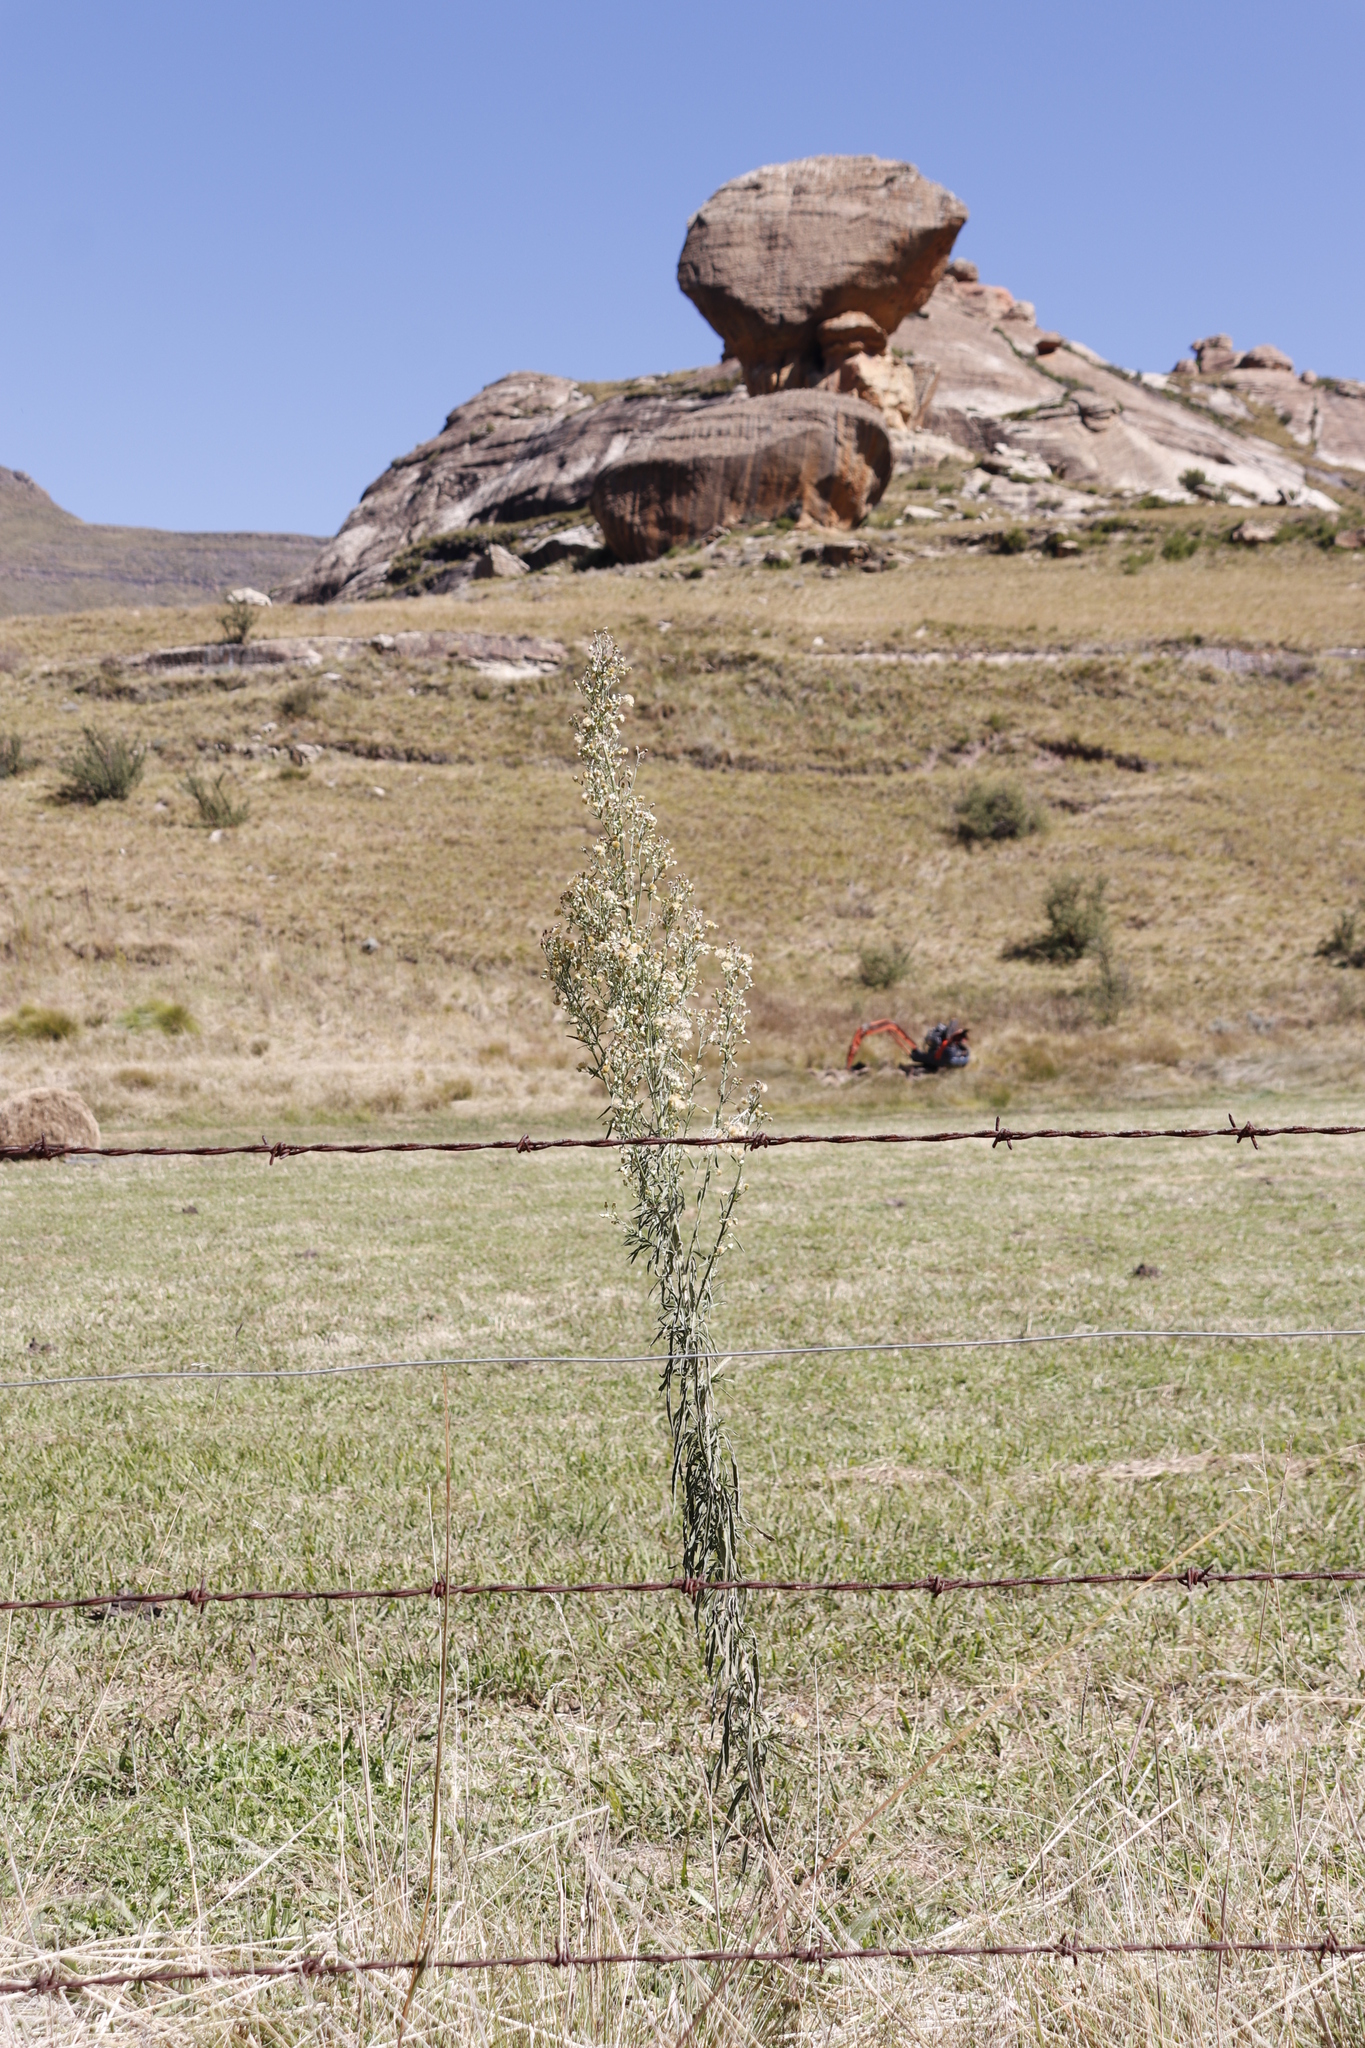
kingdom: Plantae
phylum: Tracheophyta
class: Magnoliopsida
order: Asterales
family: Asteraceae
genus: Erigeron
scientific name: Erigeron sumatrensis
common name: Daisy
